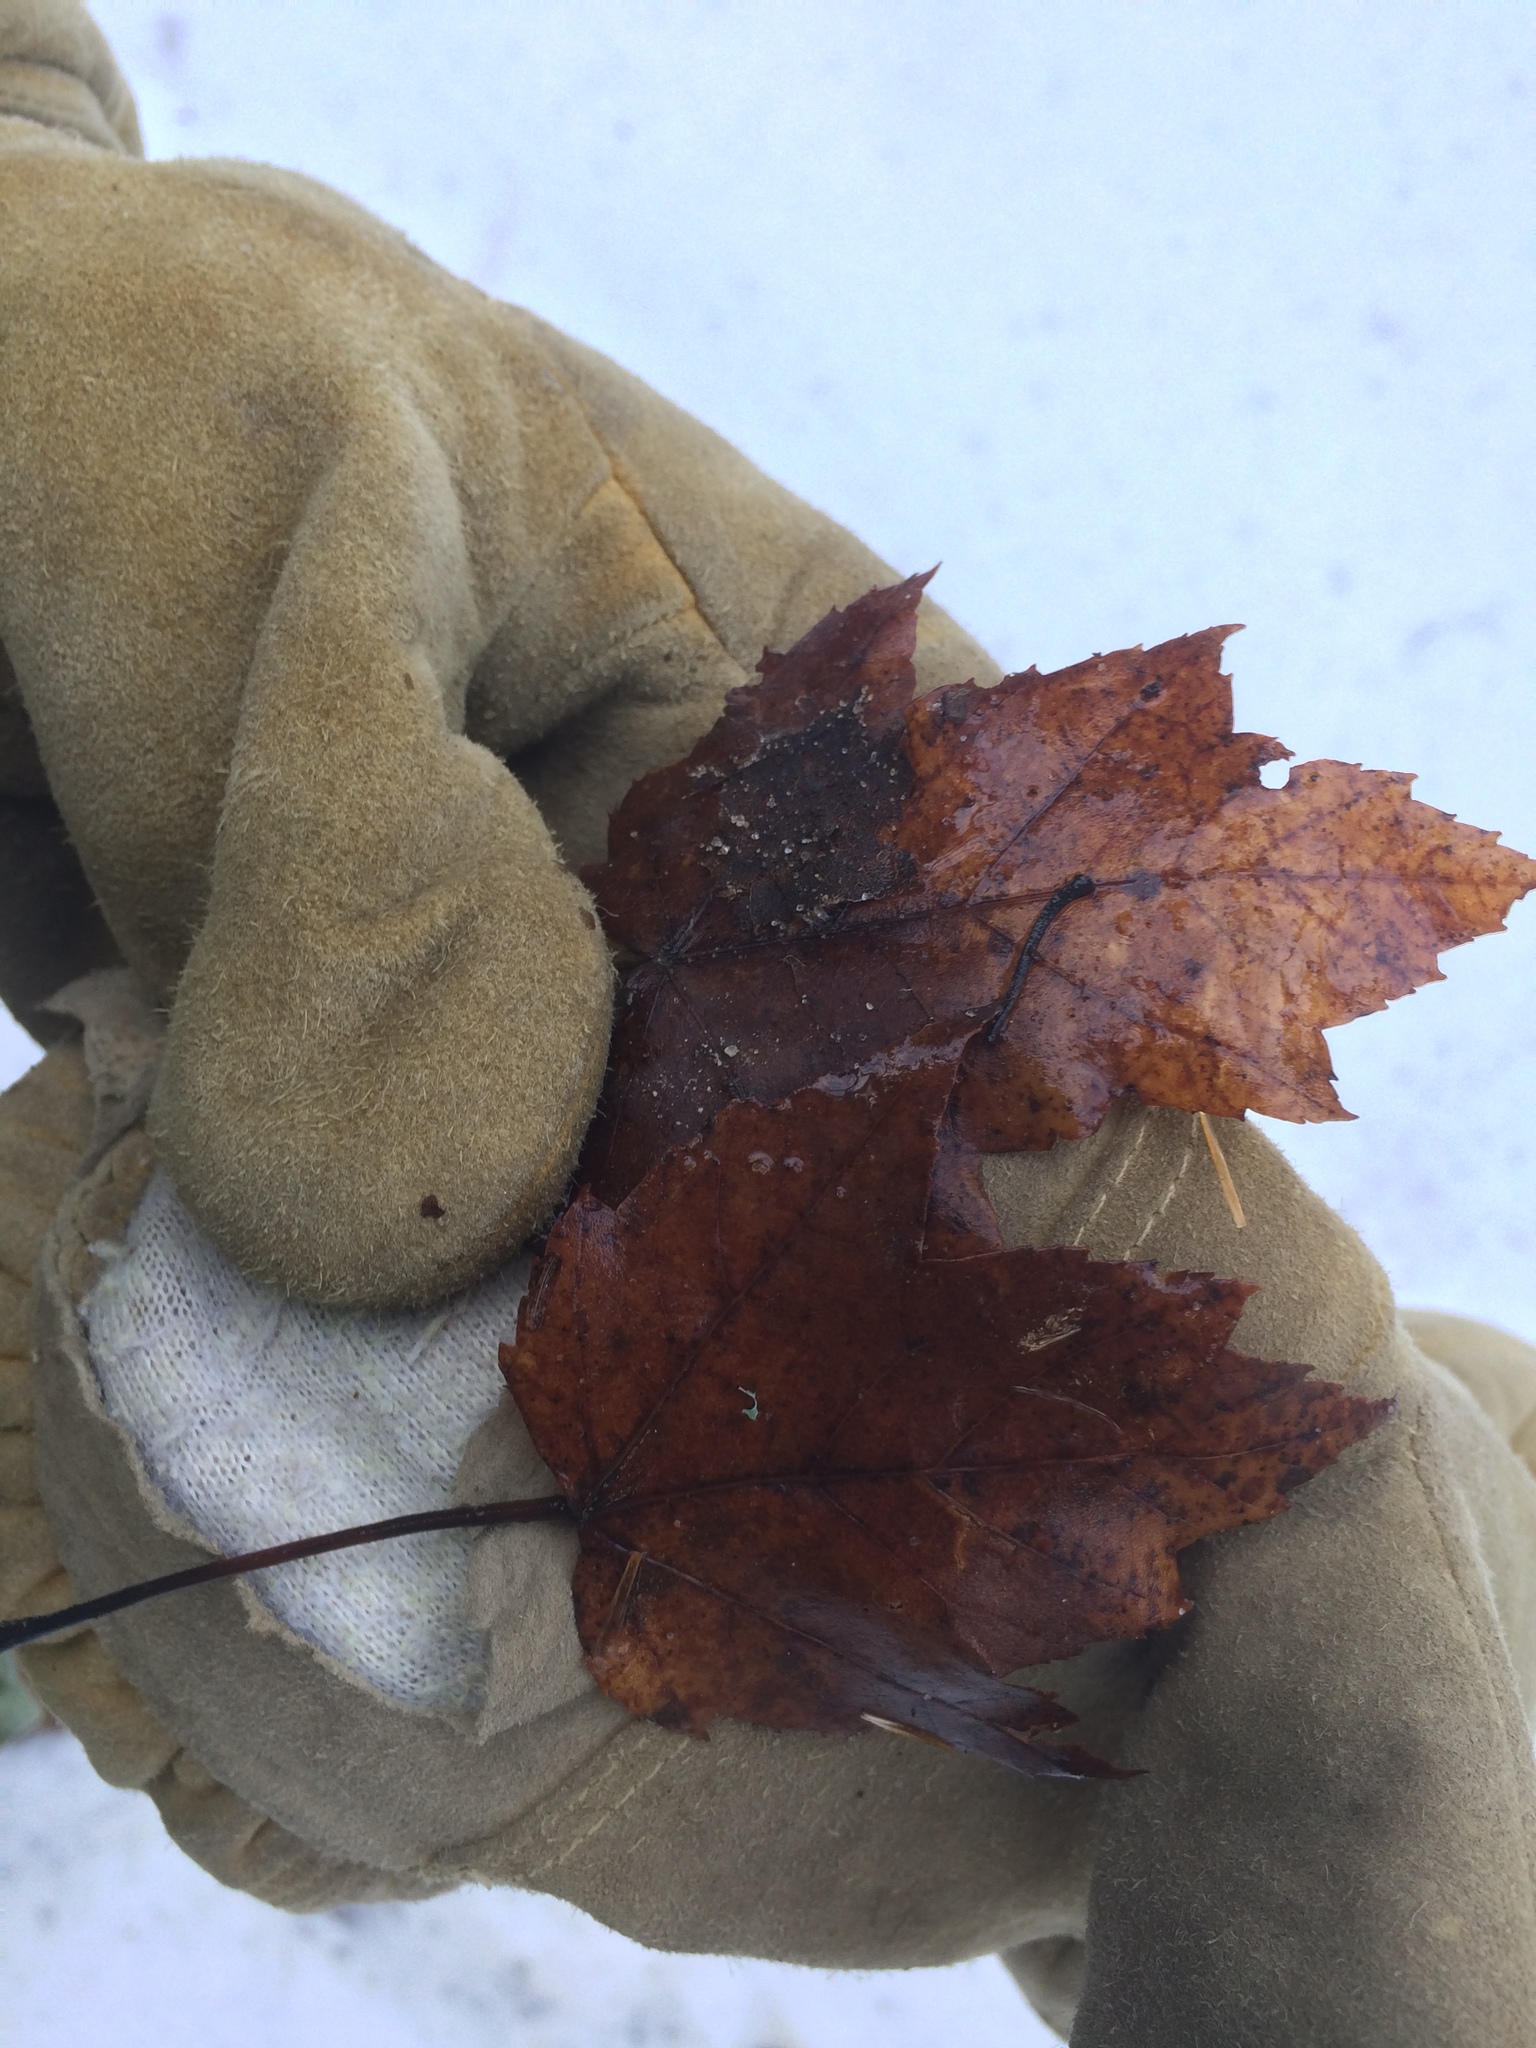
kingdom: Plantae
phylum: Tracheophyta
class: Magnoliopsida
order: Sapindales
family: Sapindaceae
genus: Acer
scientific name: Acer rubrum
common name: Red maple
